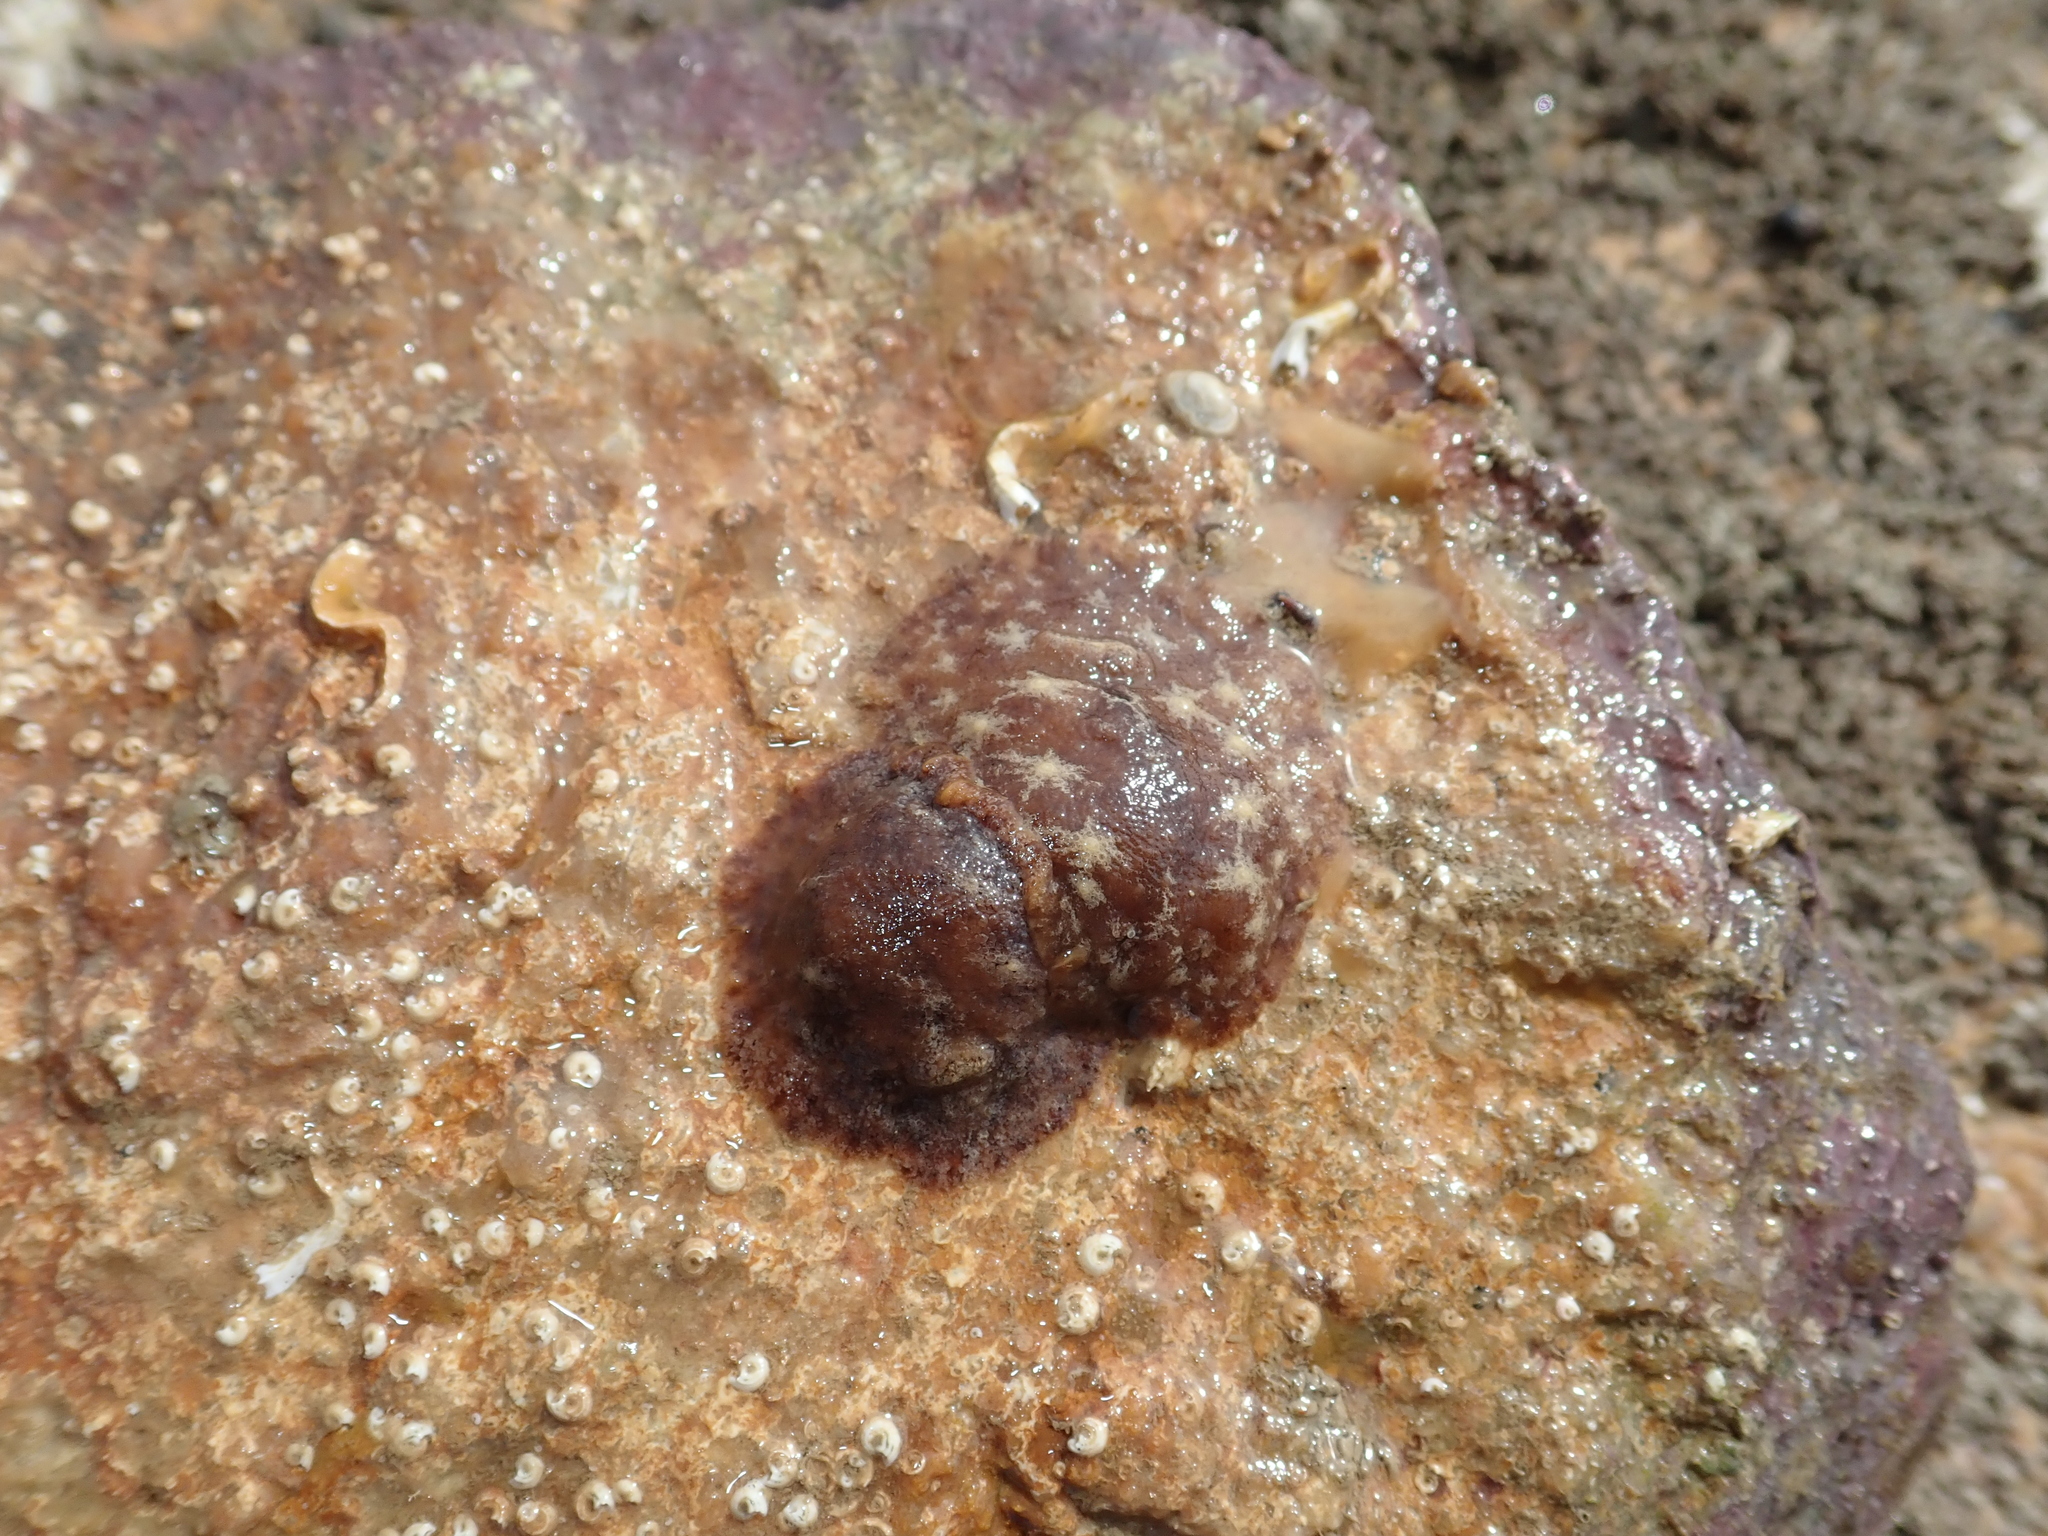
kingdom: Animalia
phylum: Mollusca
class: Gastropoda
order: Nudibranchia
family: Discodorididae
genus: Geitodoris
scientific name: Geitodoris planata
